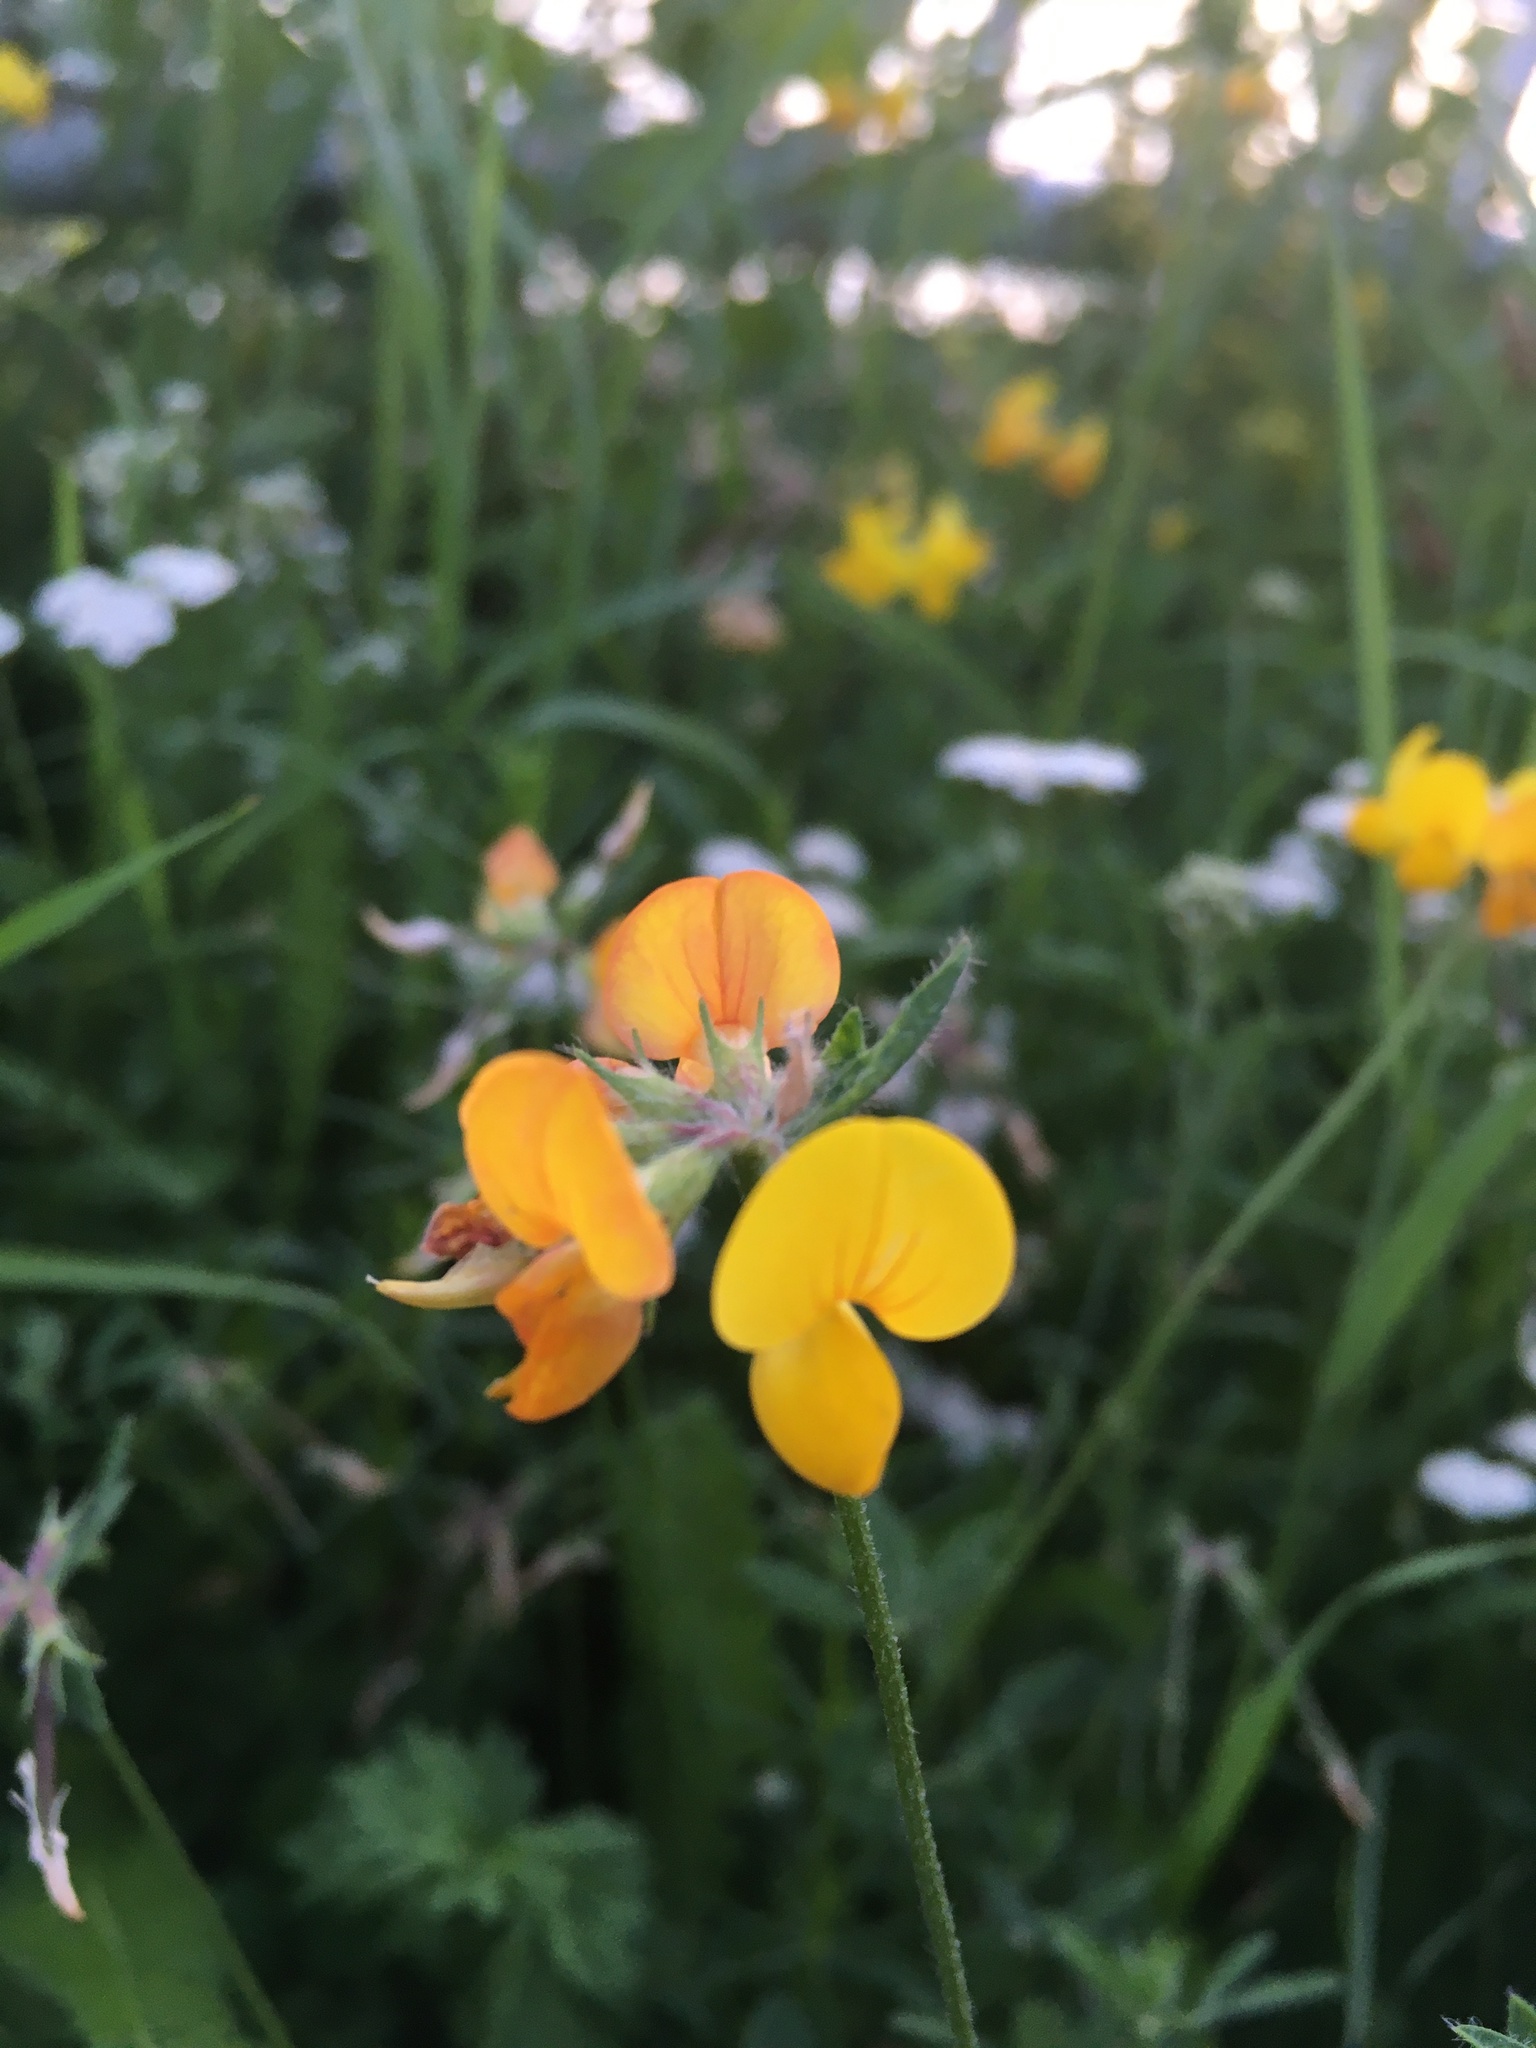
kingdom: Plantae
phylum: Tracheophyta
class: Magnoliopsida
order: Fabales
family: Fabaceae
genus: Lotus
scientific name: Lotus corniculatus
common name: Common bird's-foot-trefoil
